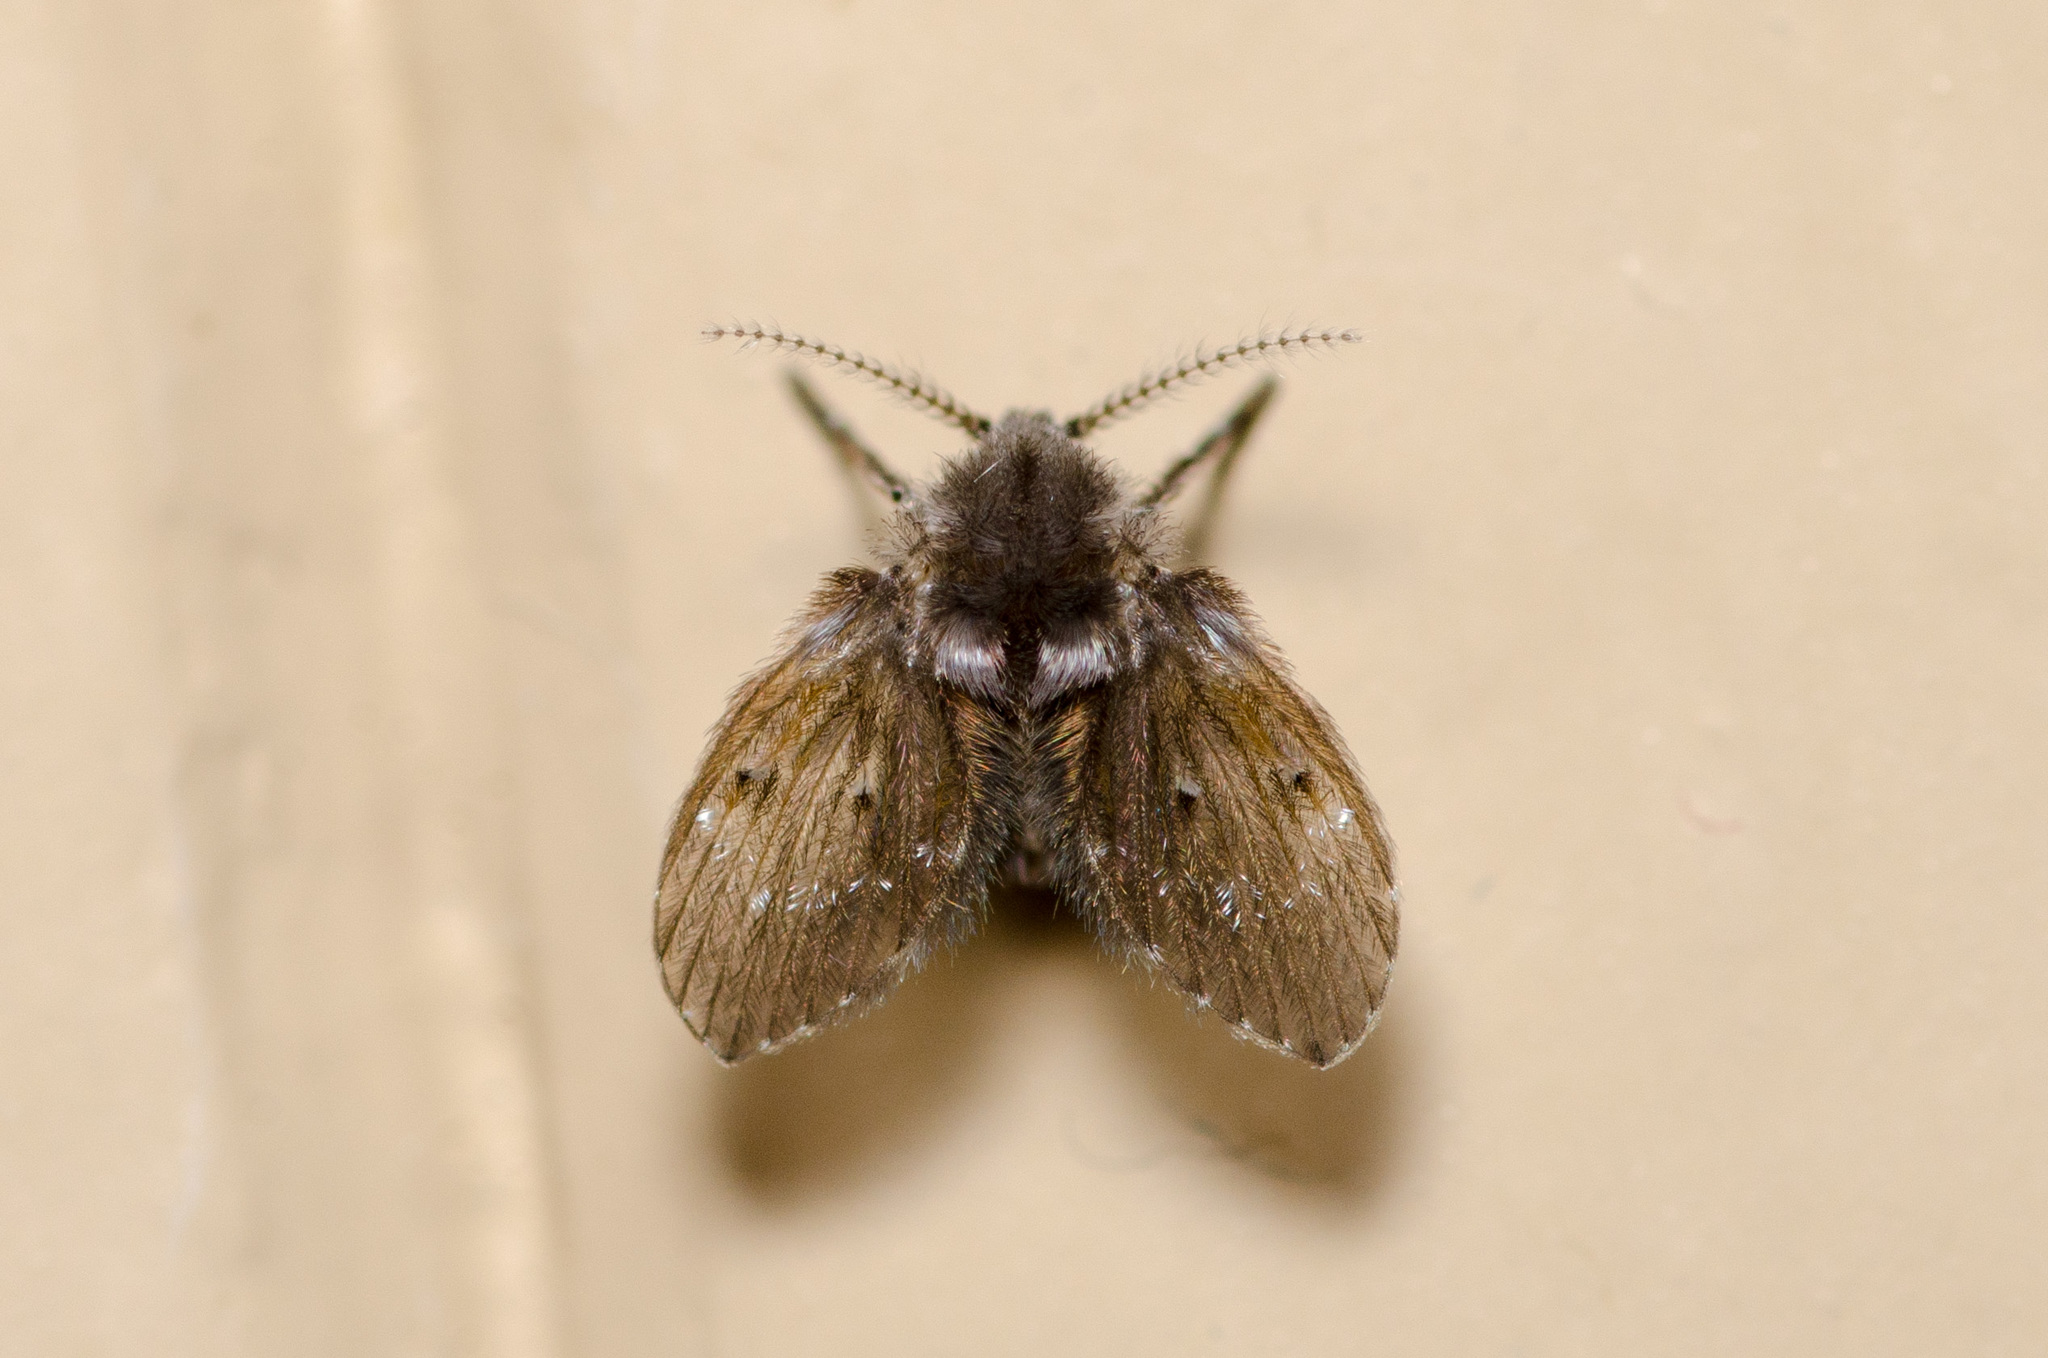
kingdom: Animalia
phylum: Arthropoda
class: Insecta
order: Diptera
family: Psychodidae
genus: Clogmia
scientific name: Clogmia albipunctatus
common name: White-spotted moth fly
